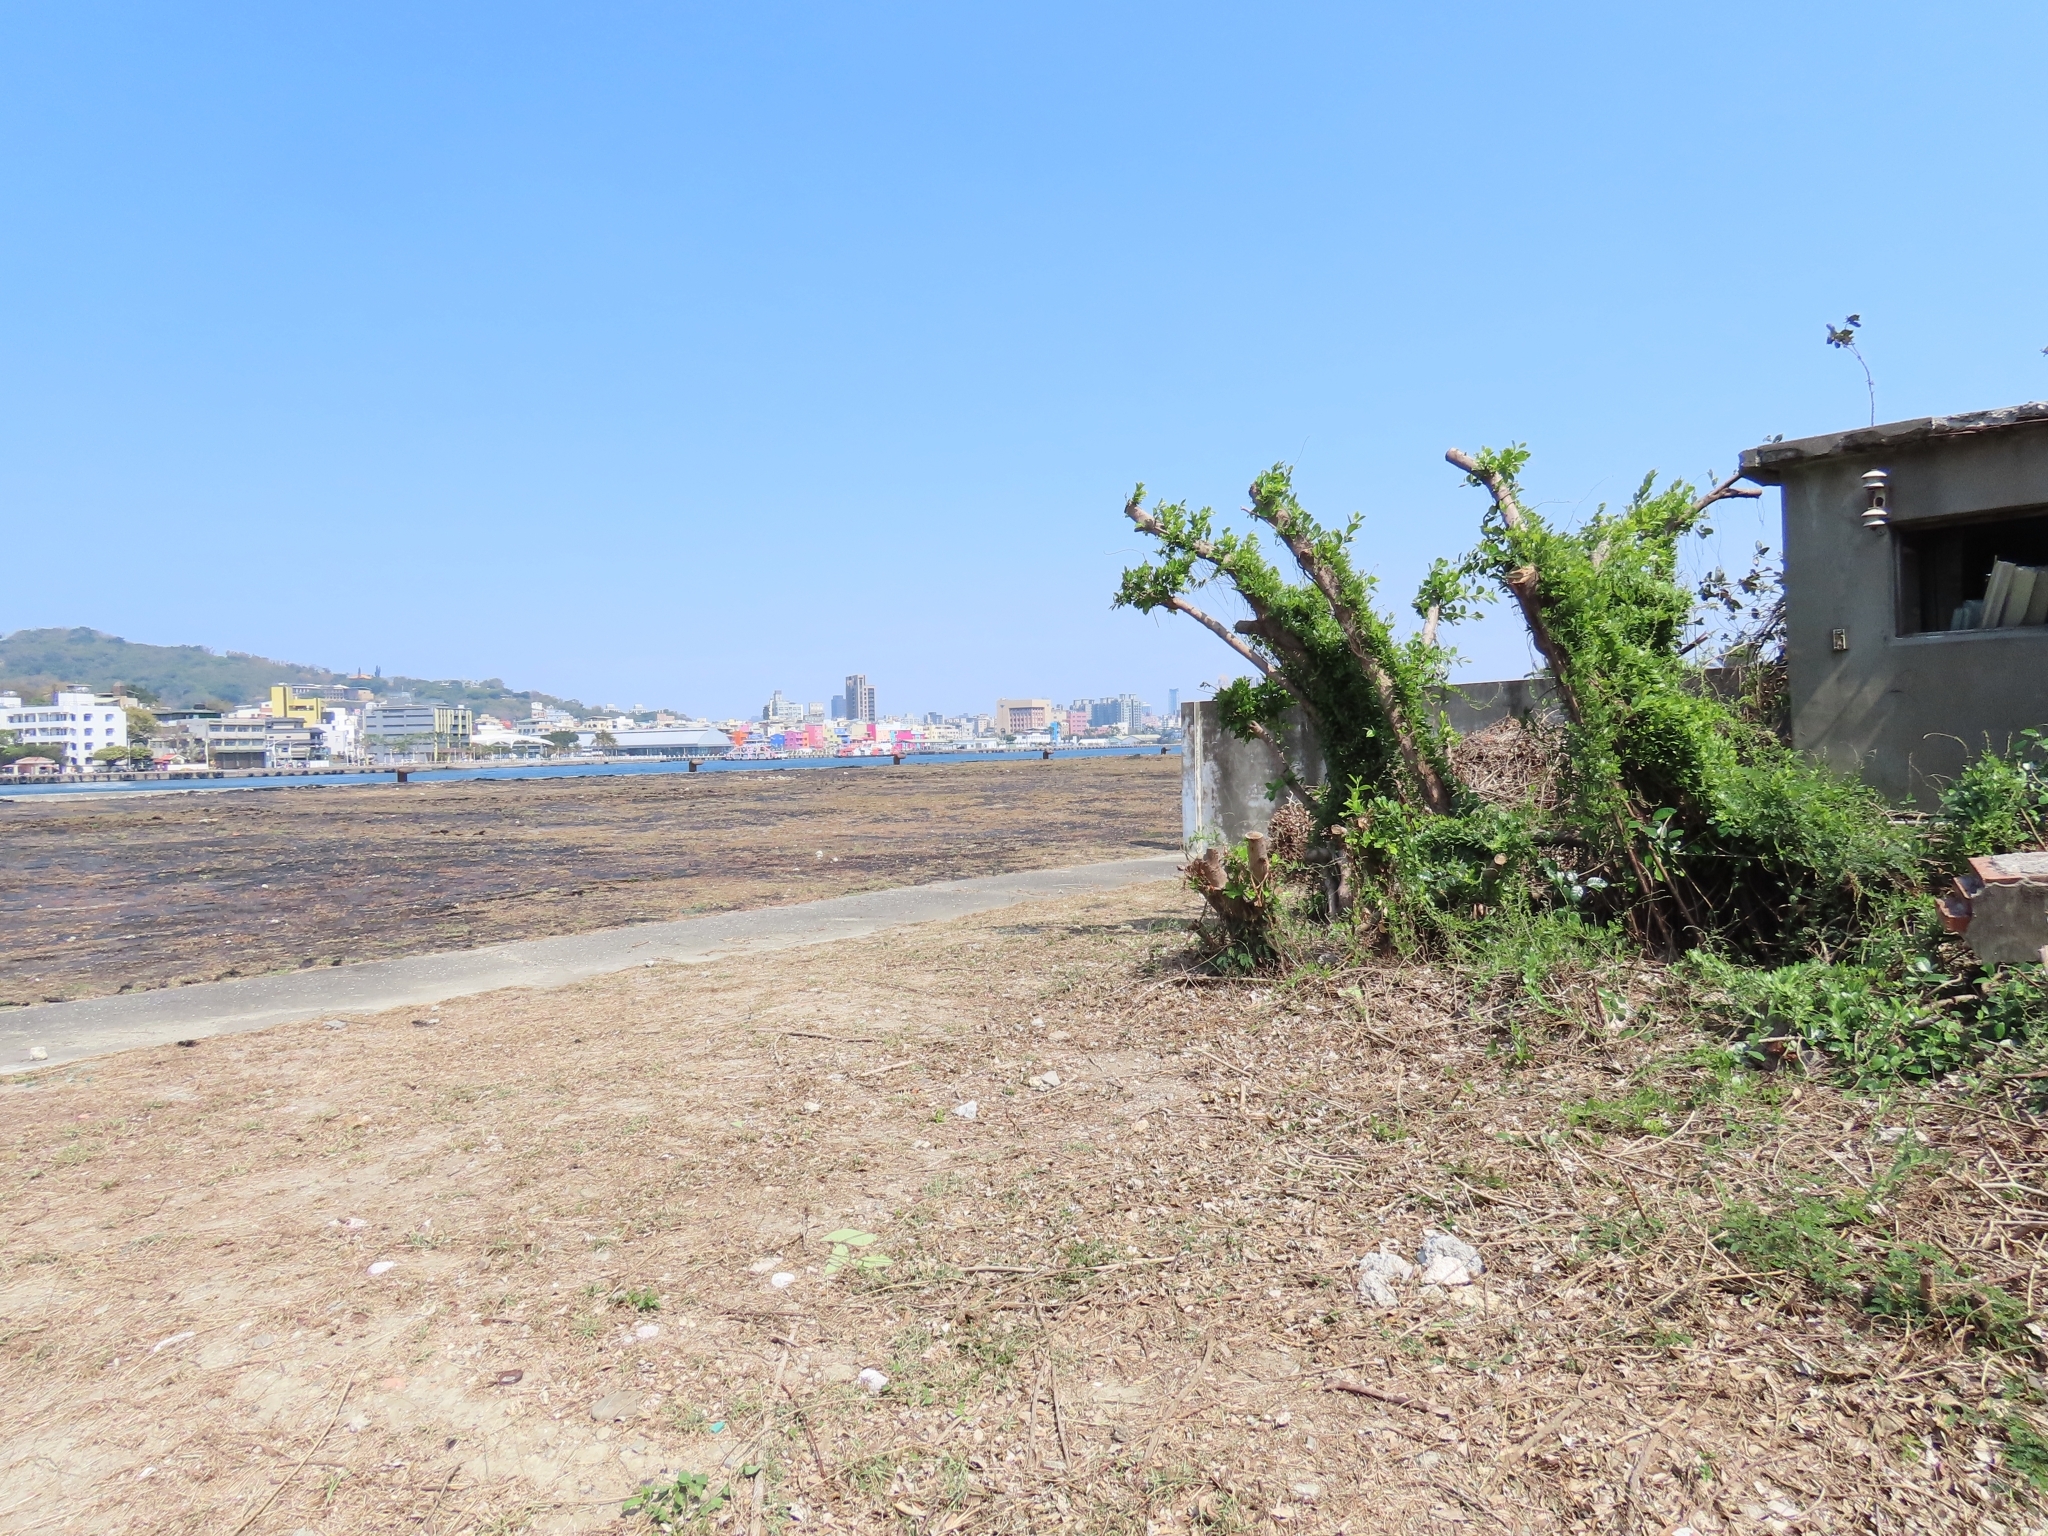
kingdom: Plantae
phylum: Tracheophyta
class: Magnoliopsida
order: Rosales
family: Moraceae
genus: Ficus
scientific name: Ficus tinctoria
